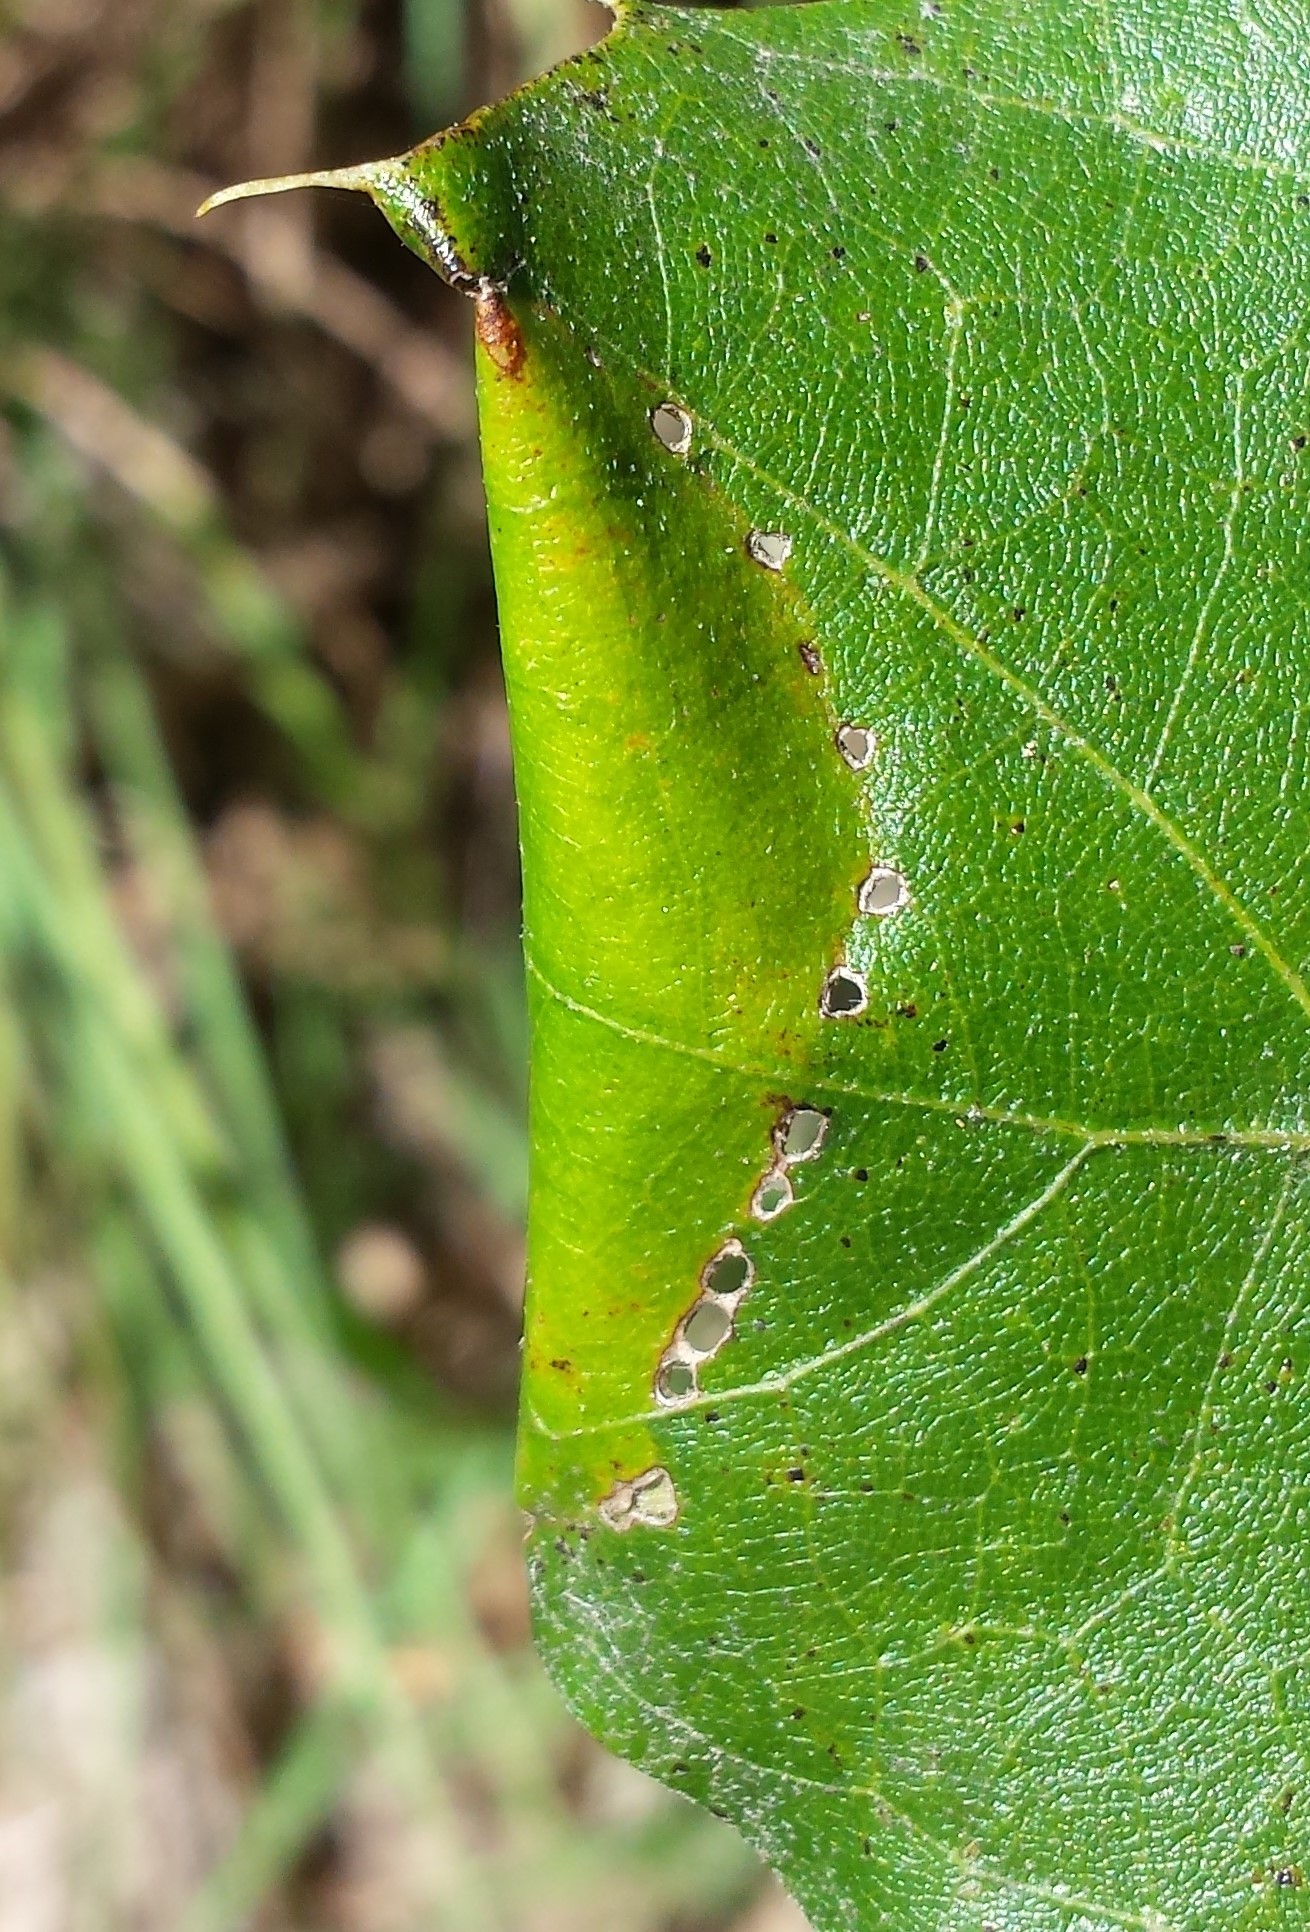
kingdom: Animalia
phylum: Arthropoda
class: Insecta
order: Lepidoptera
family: Gracillariidae
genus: Povolnya
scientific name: Povolnya quercinigrella
